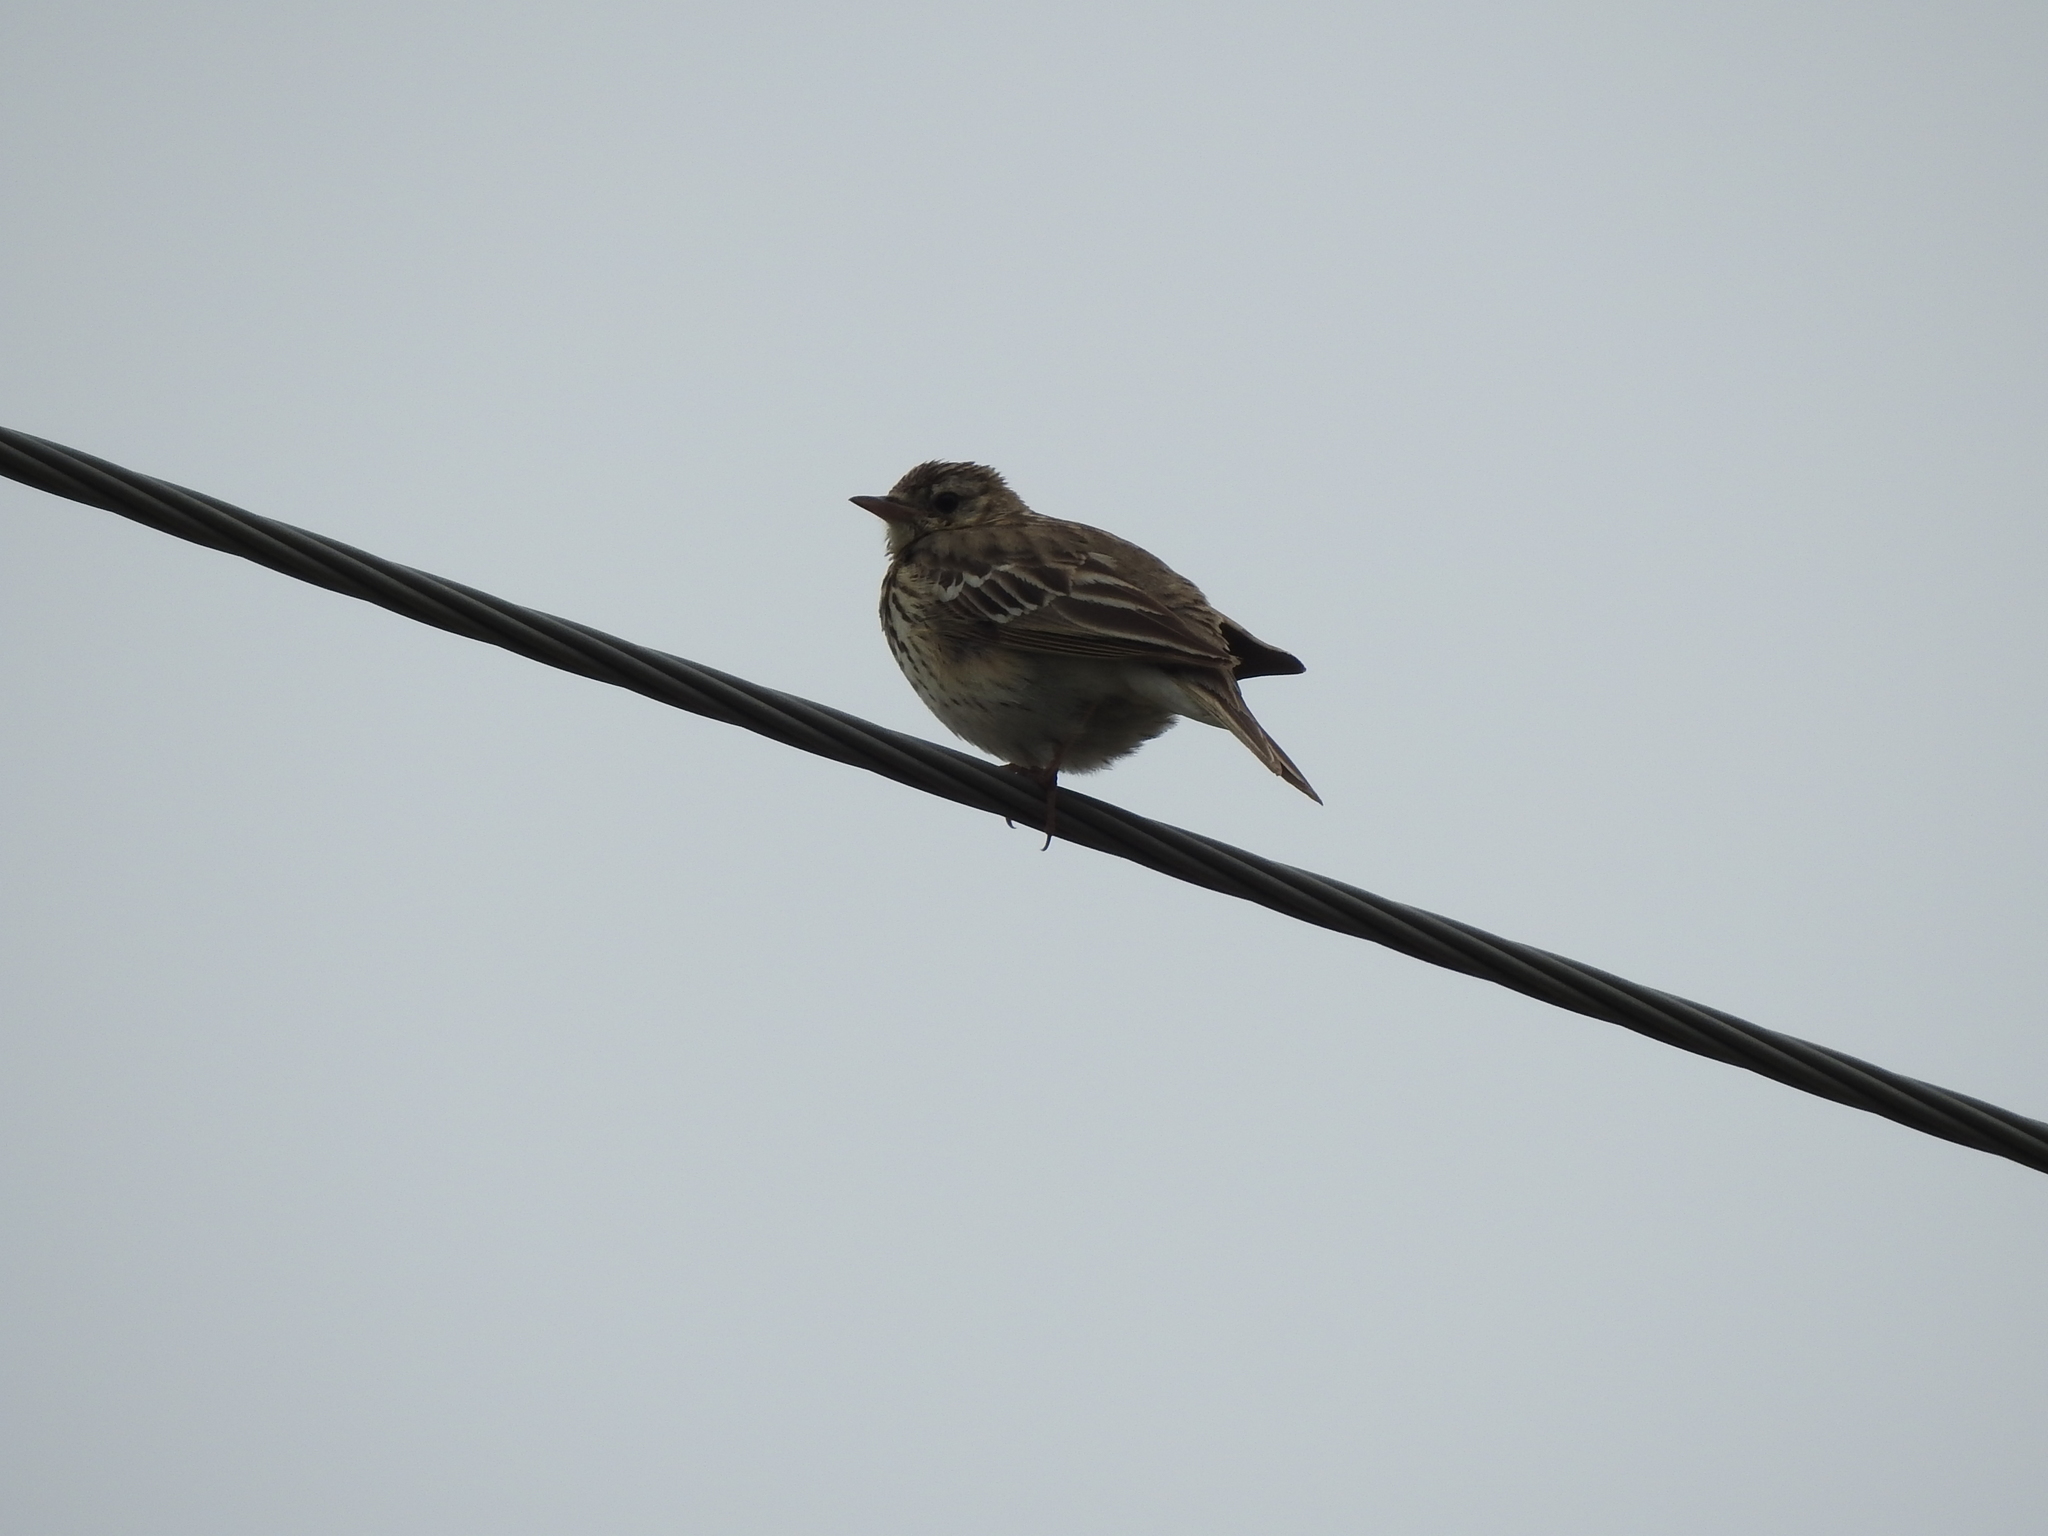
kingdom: Animalia
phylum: Chordata
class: Aves
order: Passeriformes
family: Motacillidae
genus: Anthus
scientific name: Anthus trivialis
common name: Tree pipit
